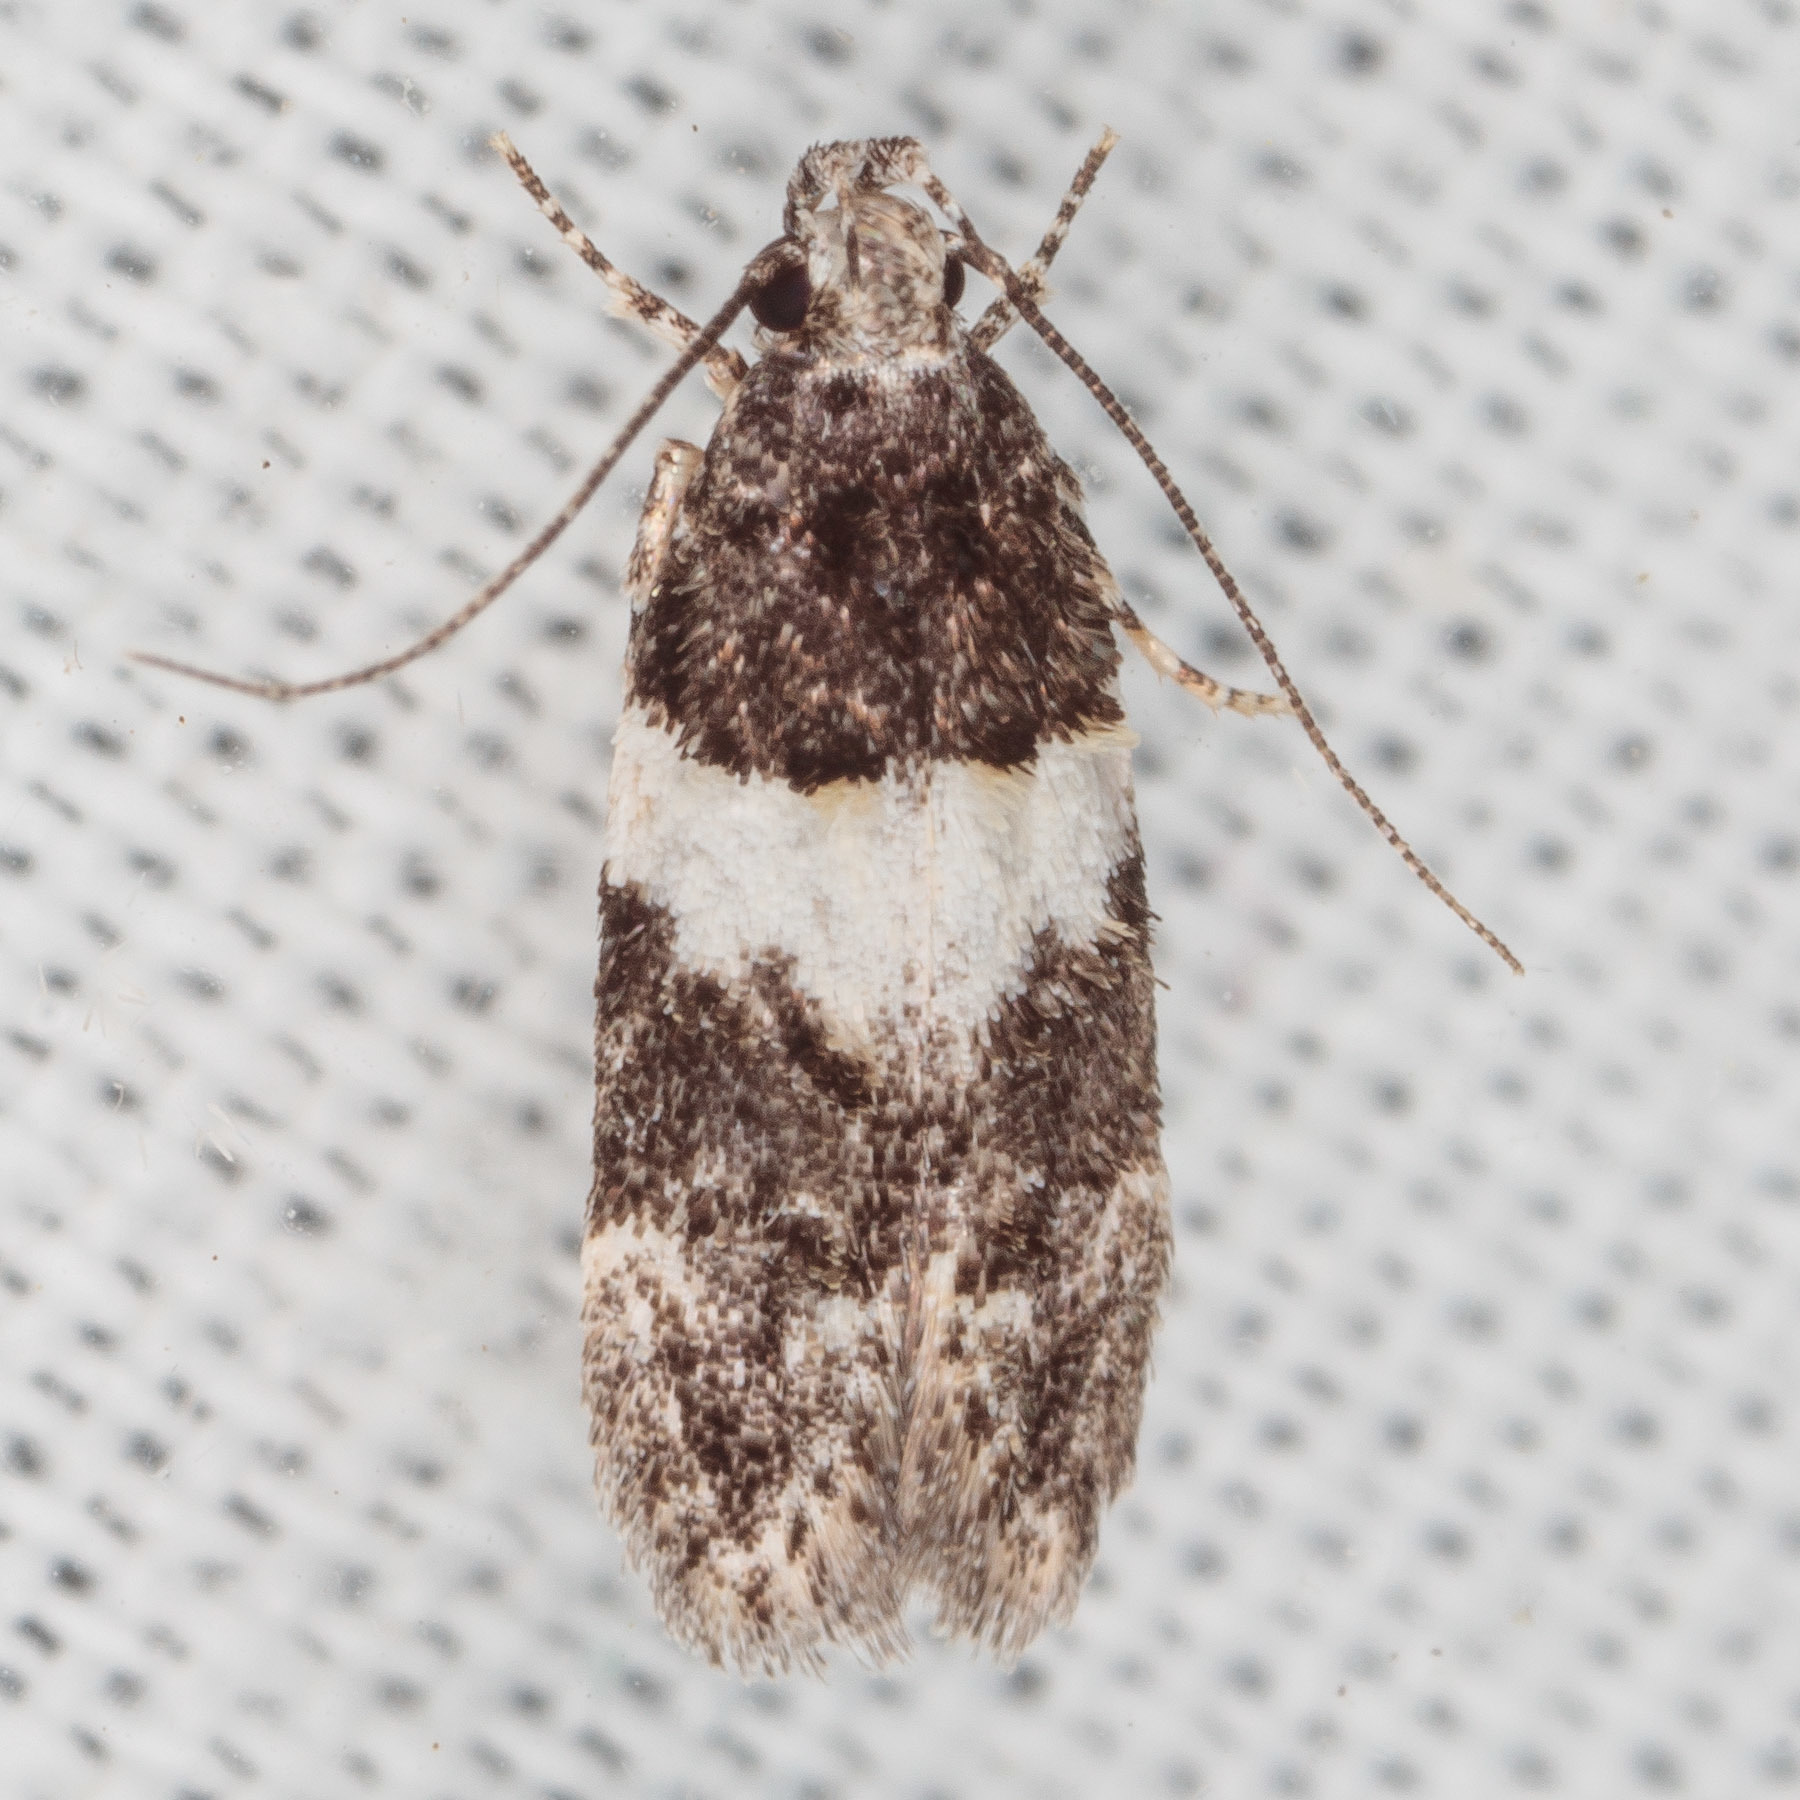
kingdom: Animalia
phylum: Arthropoda
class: Insecta
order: Lepidoptera
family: Gelechiidae
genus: Pubitelphusa
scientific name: Pubitelphusa latifasciella
